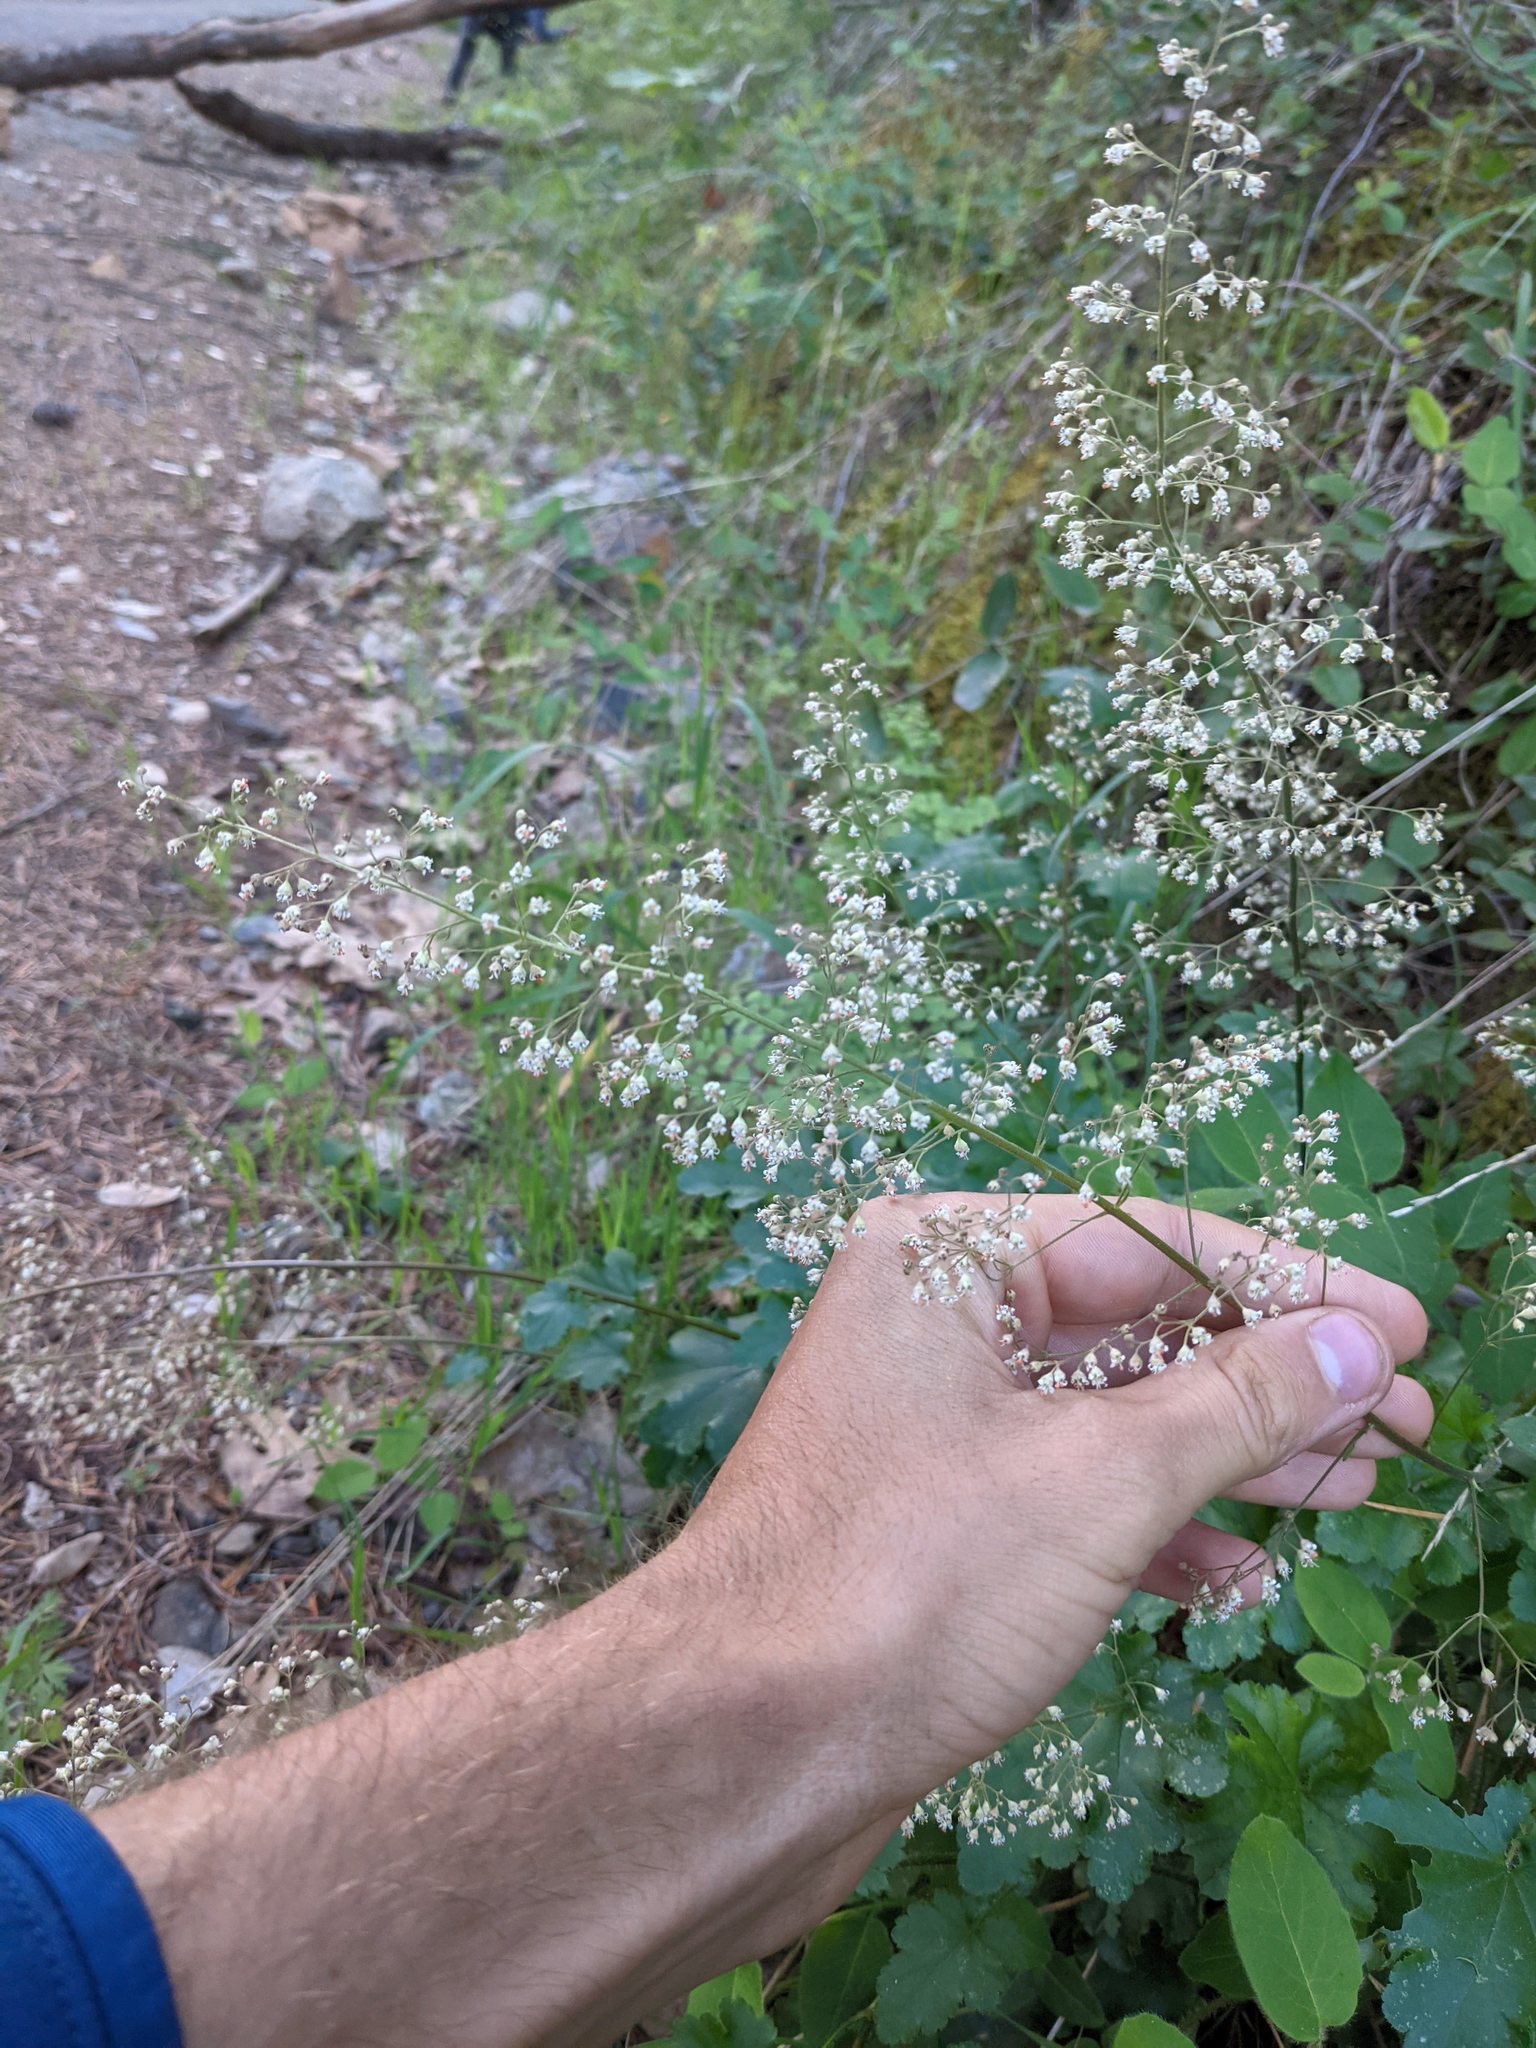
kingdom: Plantae
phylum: Tracheophyta
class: Magnoliopsida
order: Saxifragales
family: Saxifragaceae
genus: Heuchera
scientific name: Heuchera micrantha
